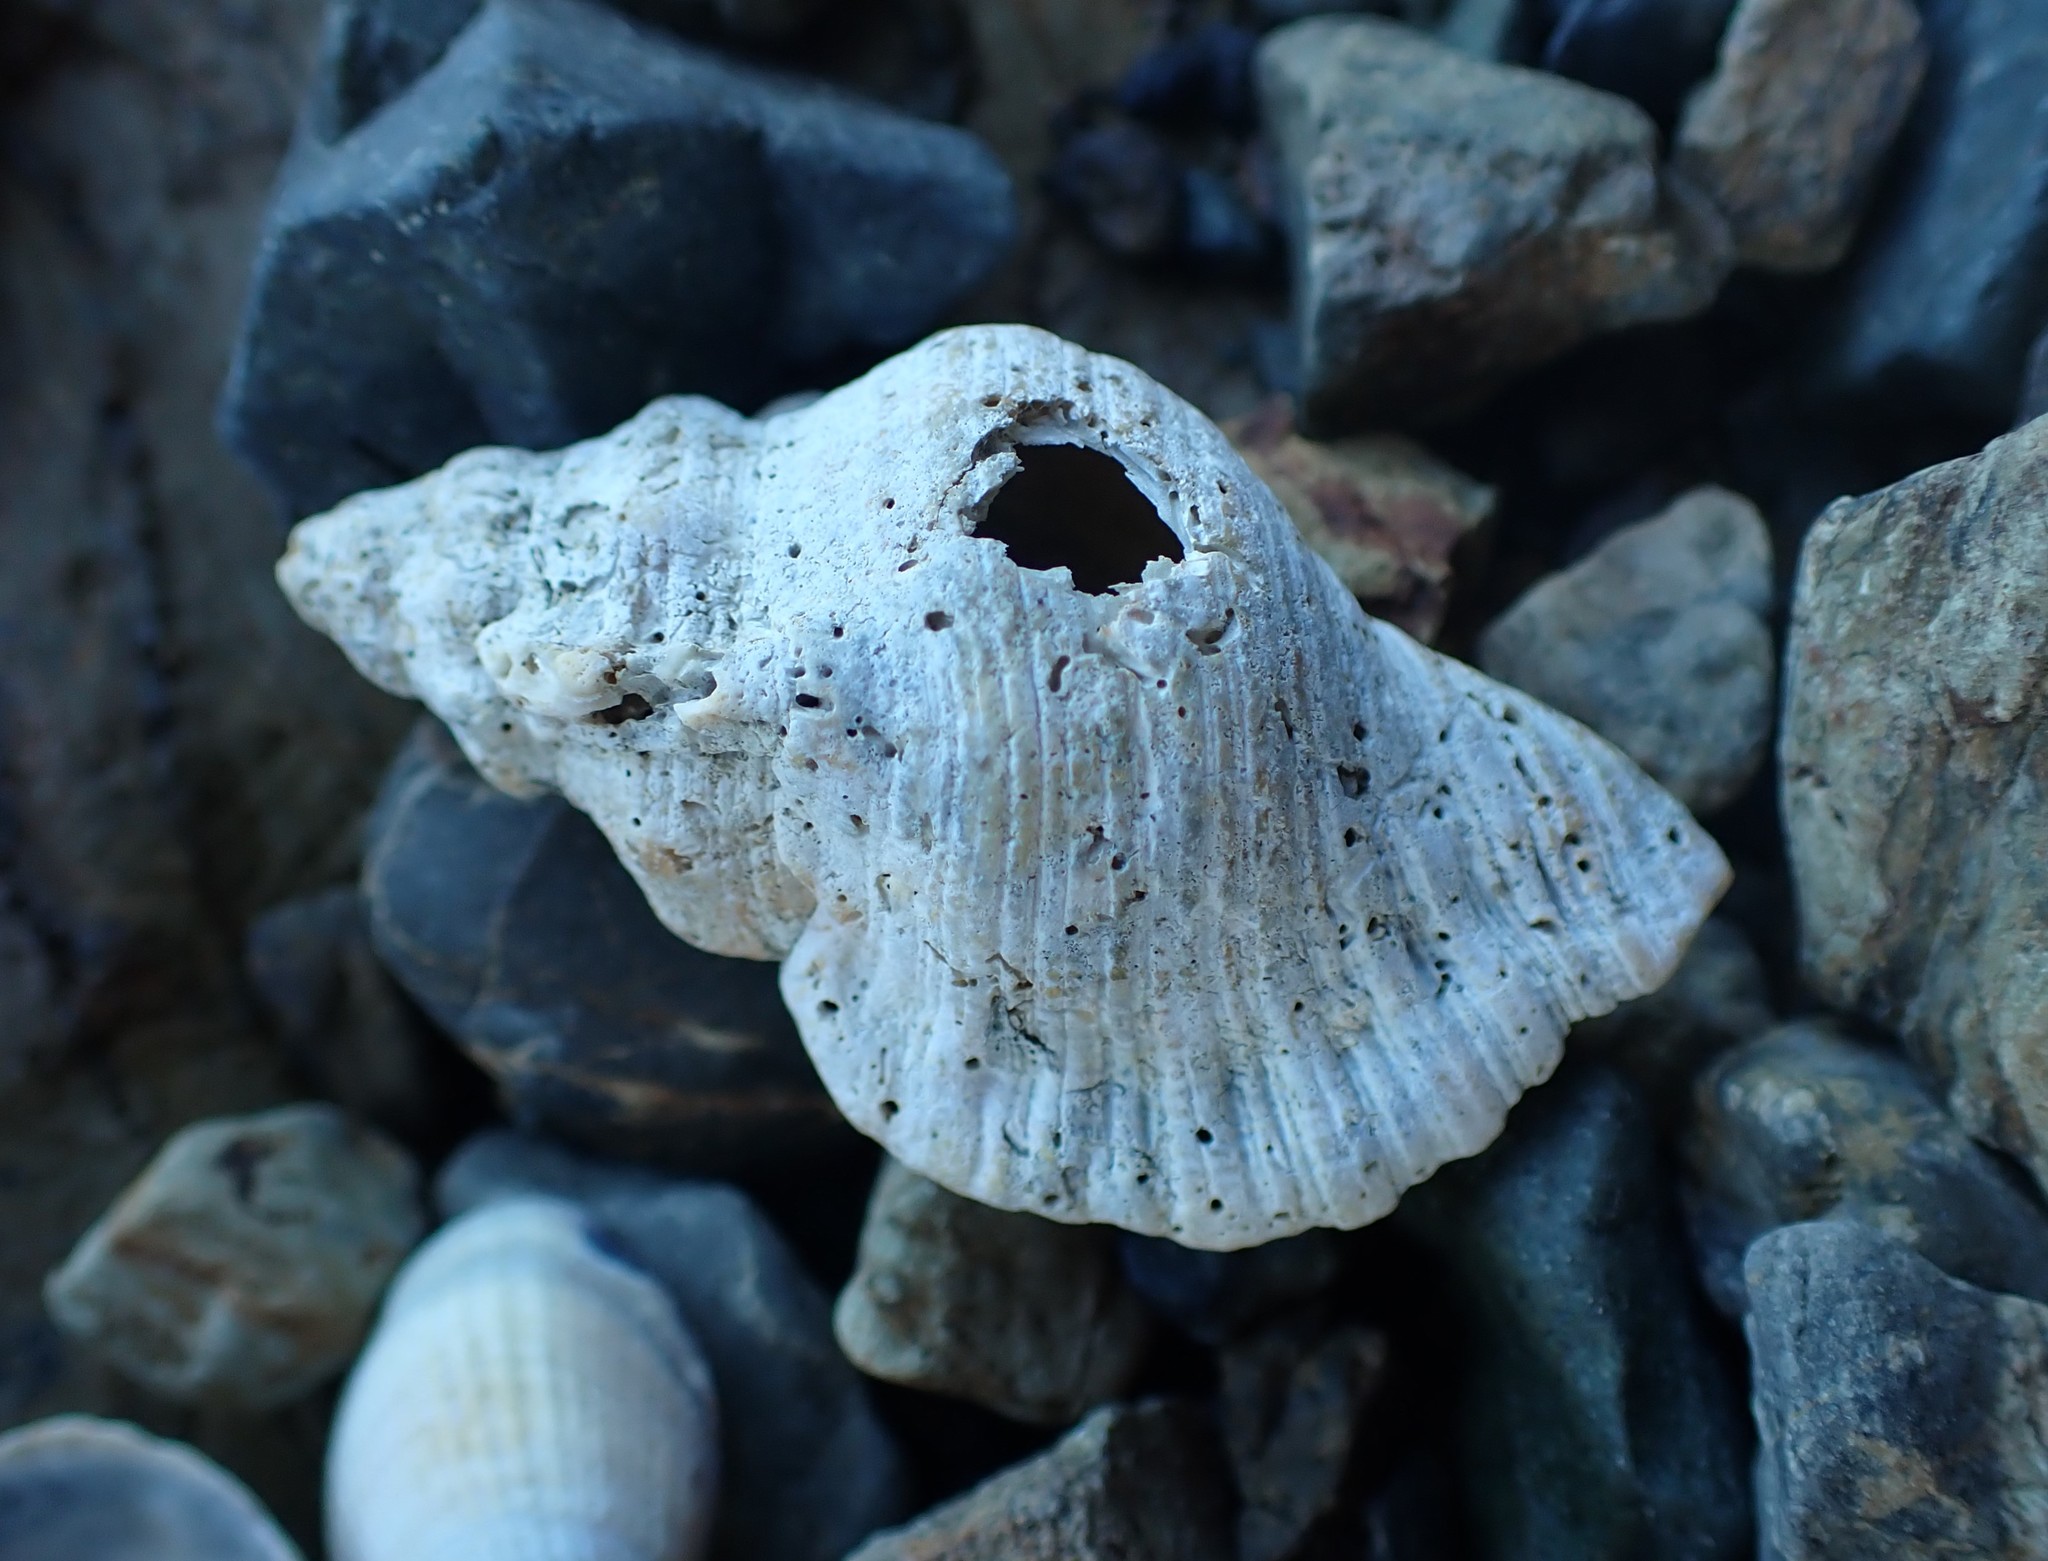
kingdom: Animalia
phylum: Mollusca
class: Gastropoda
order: Littorinimorpha
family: Cymatiidae
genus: Cabestana
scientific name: Cabestana spengleri
